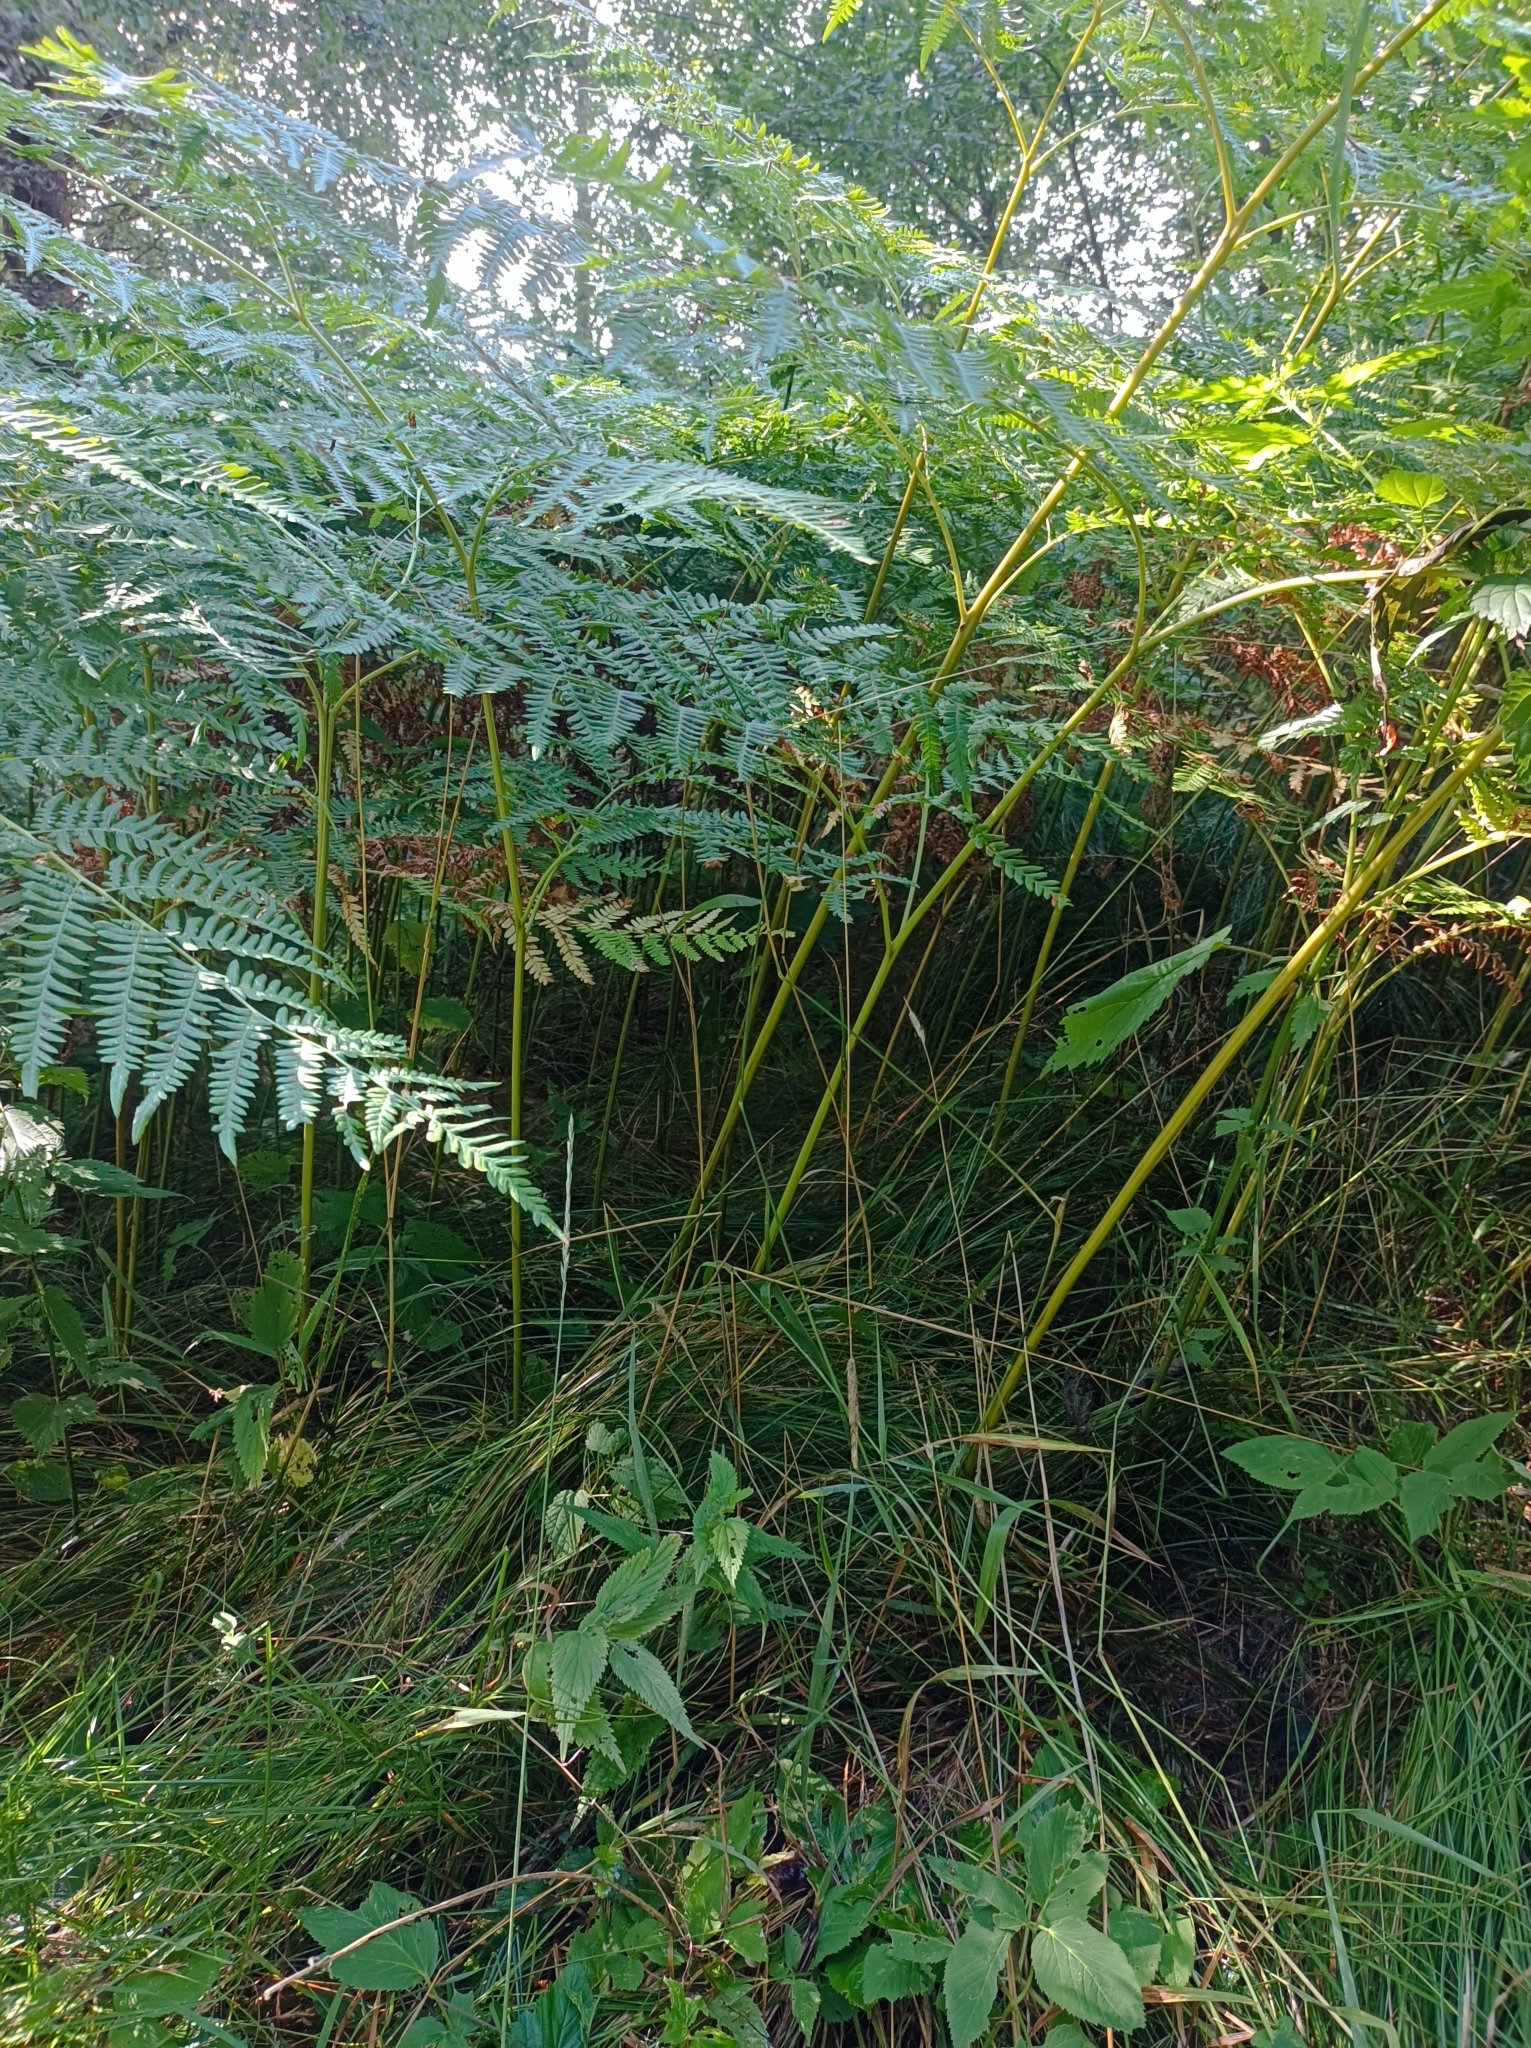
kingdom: Plantae
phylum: Tracheophyta
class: Polypodiopsida
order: Polypodiales
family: Dennstaedtiaceae
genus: Pteridium
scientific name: Pteridium aquilinum
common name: Bracken
